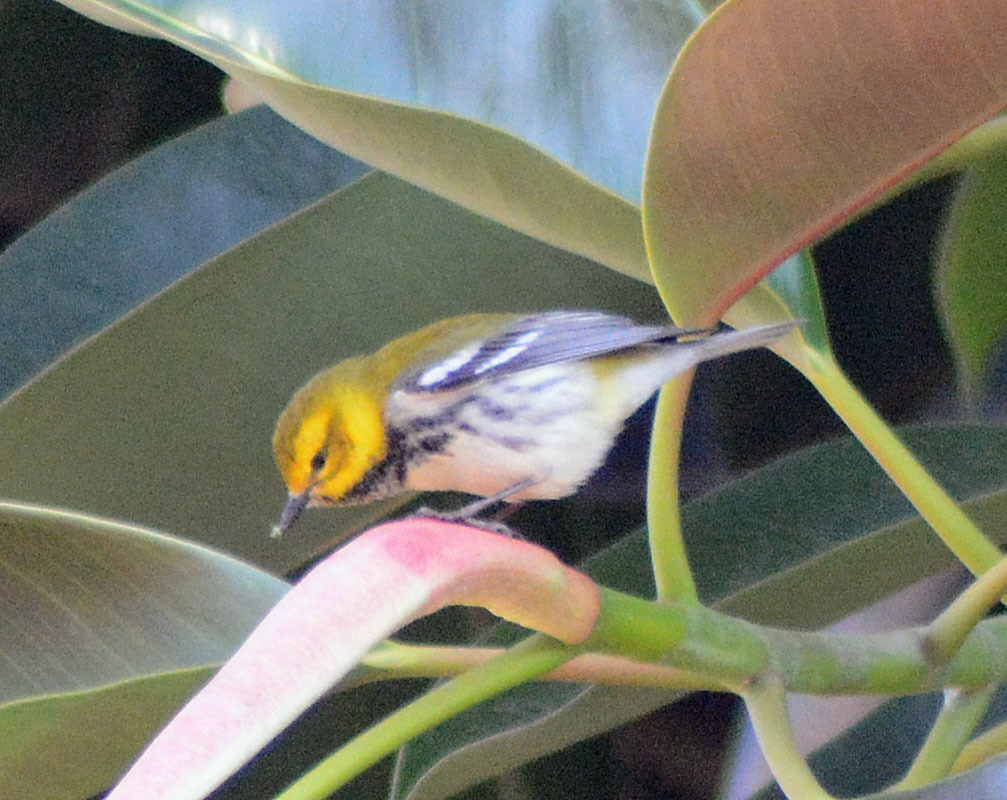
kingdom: Animalia
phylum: Chordata
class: Aves
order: Passeriformes
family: Parulidae
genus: Setophaga
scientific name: Setophaga virens
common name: Black-throated green warbler
